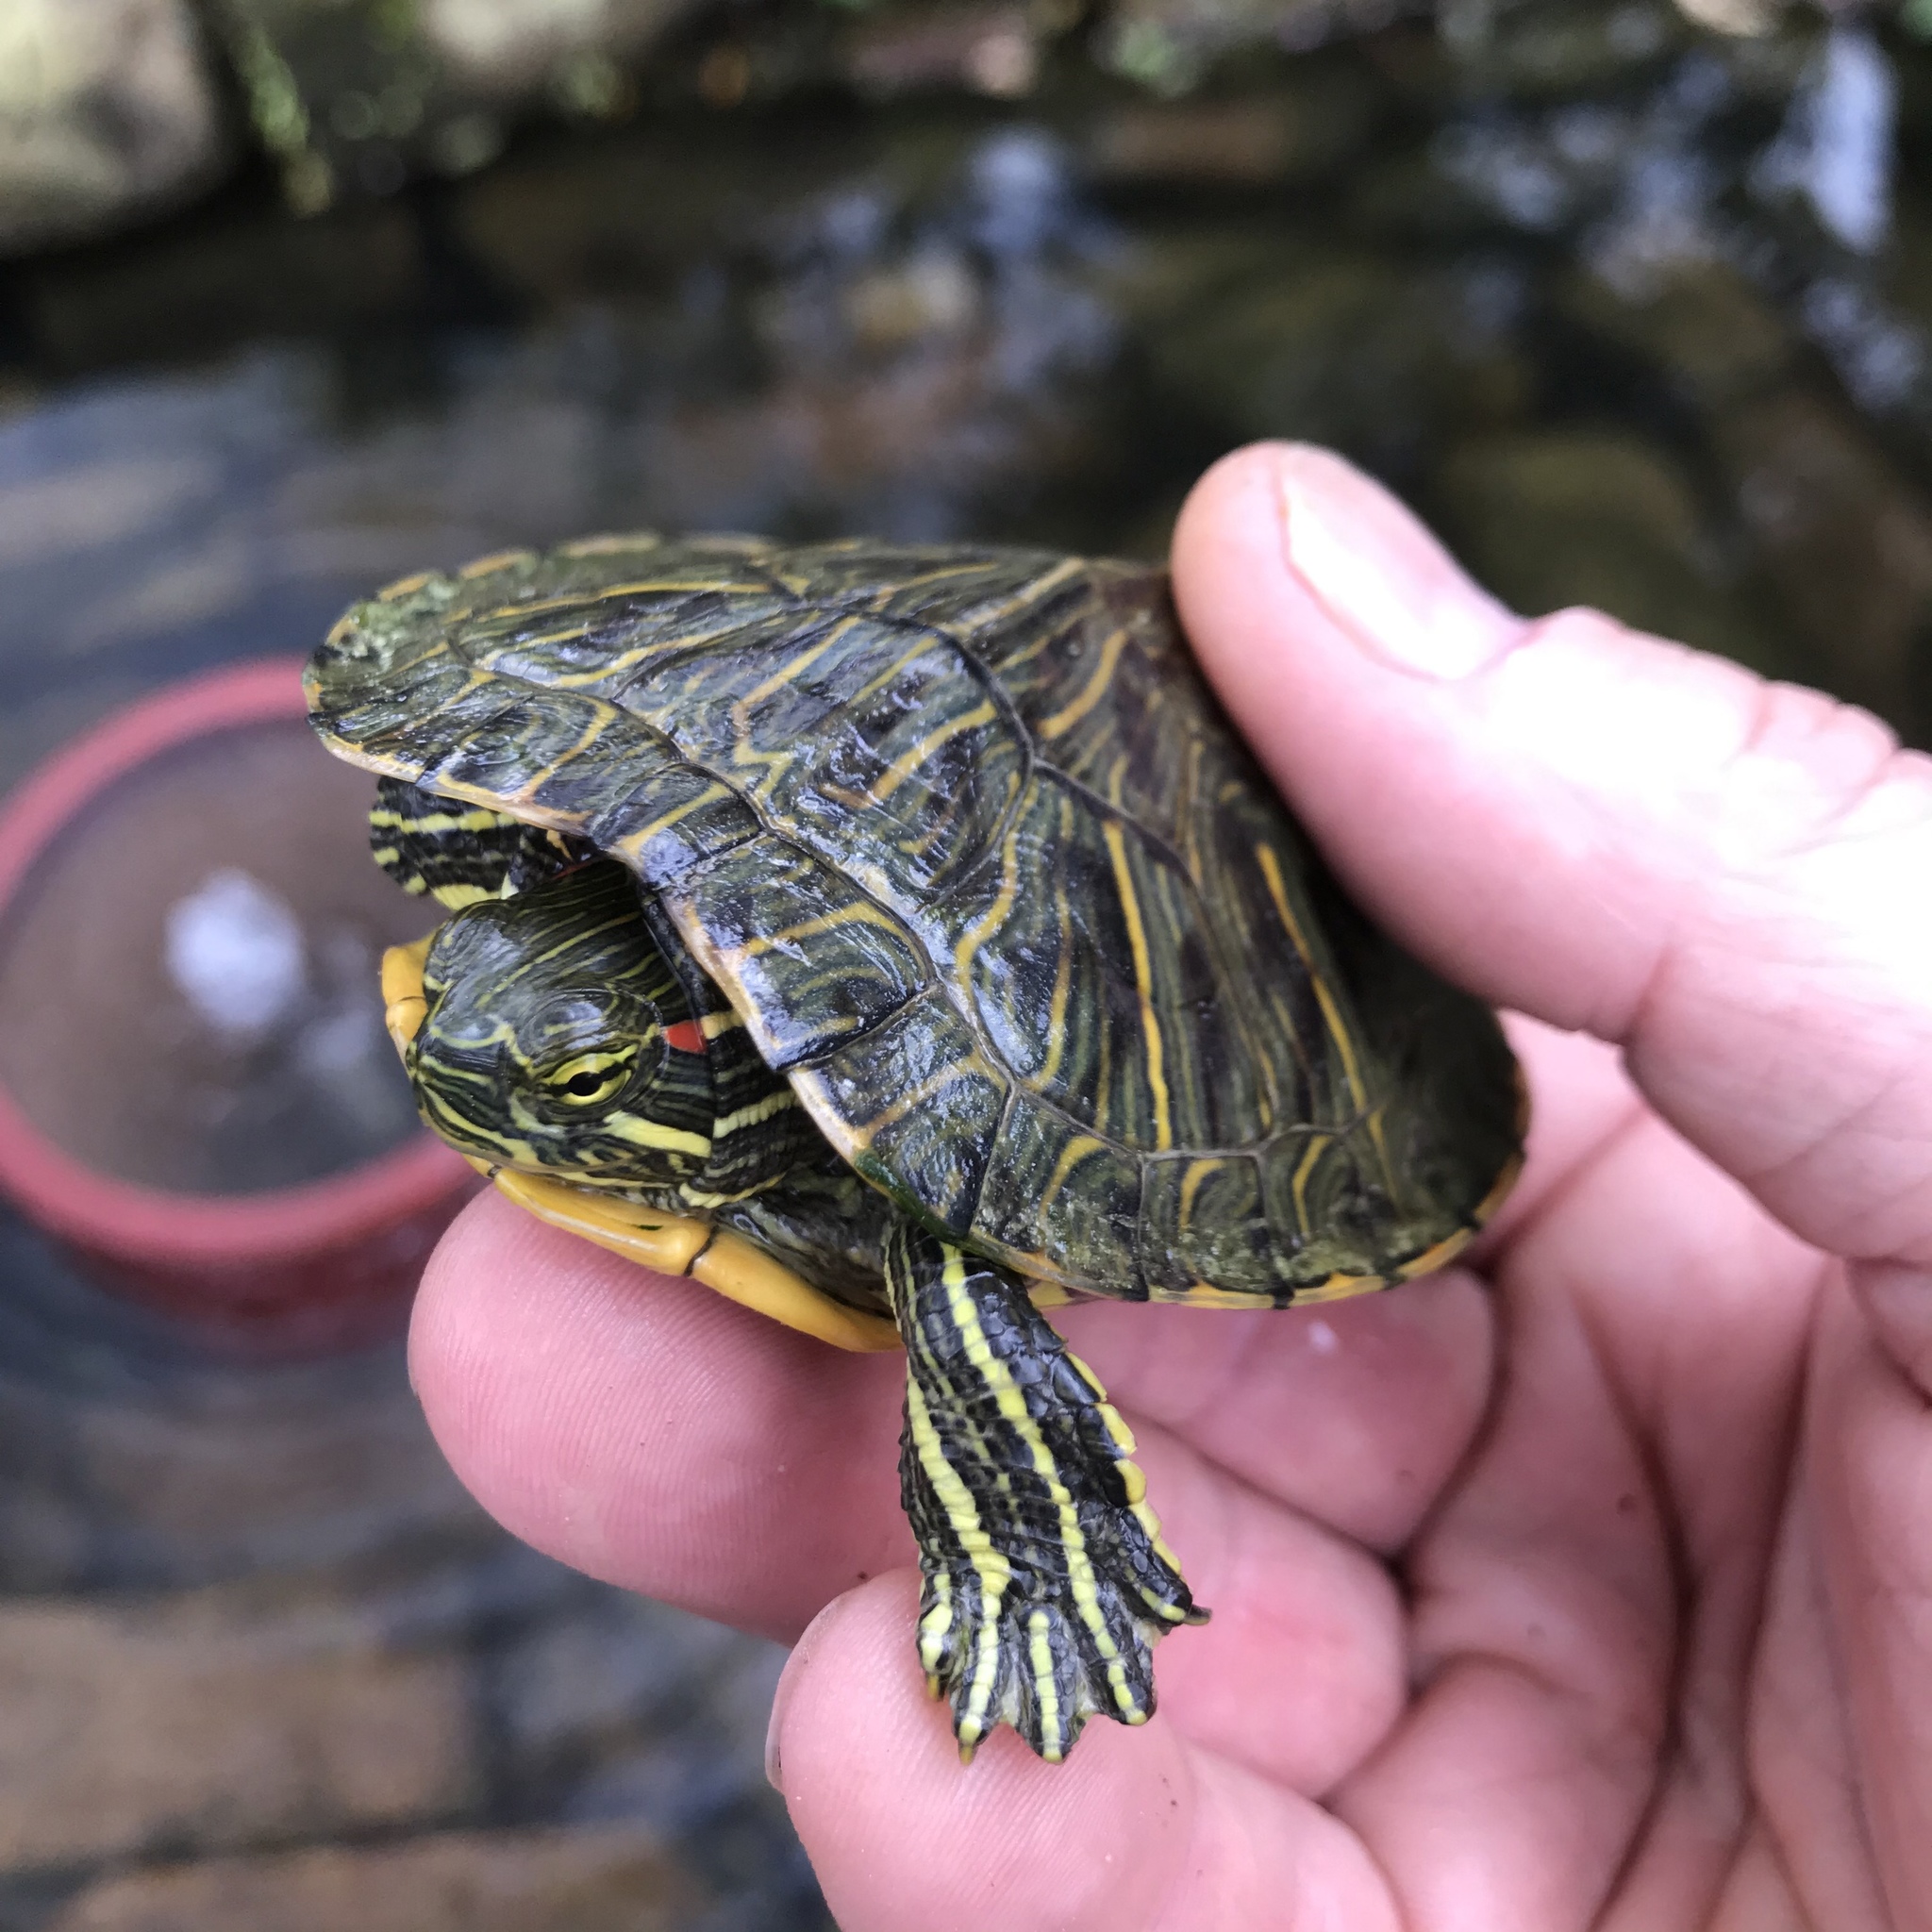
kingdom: Animalia
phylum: Chordata
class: Testudines
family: Emydidae
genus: Trachemys
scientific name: Trachemys scripta
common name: Slider
